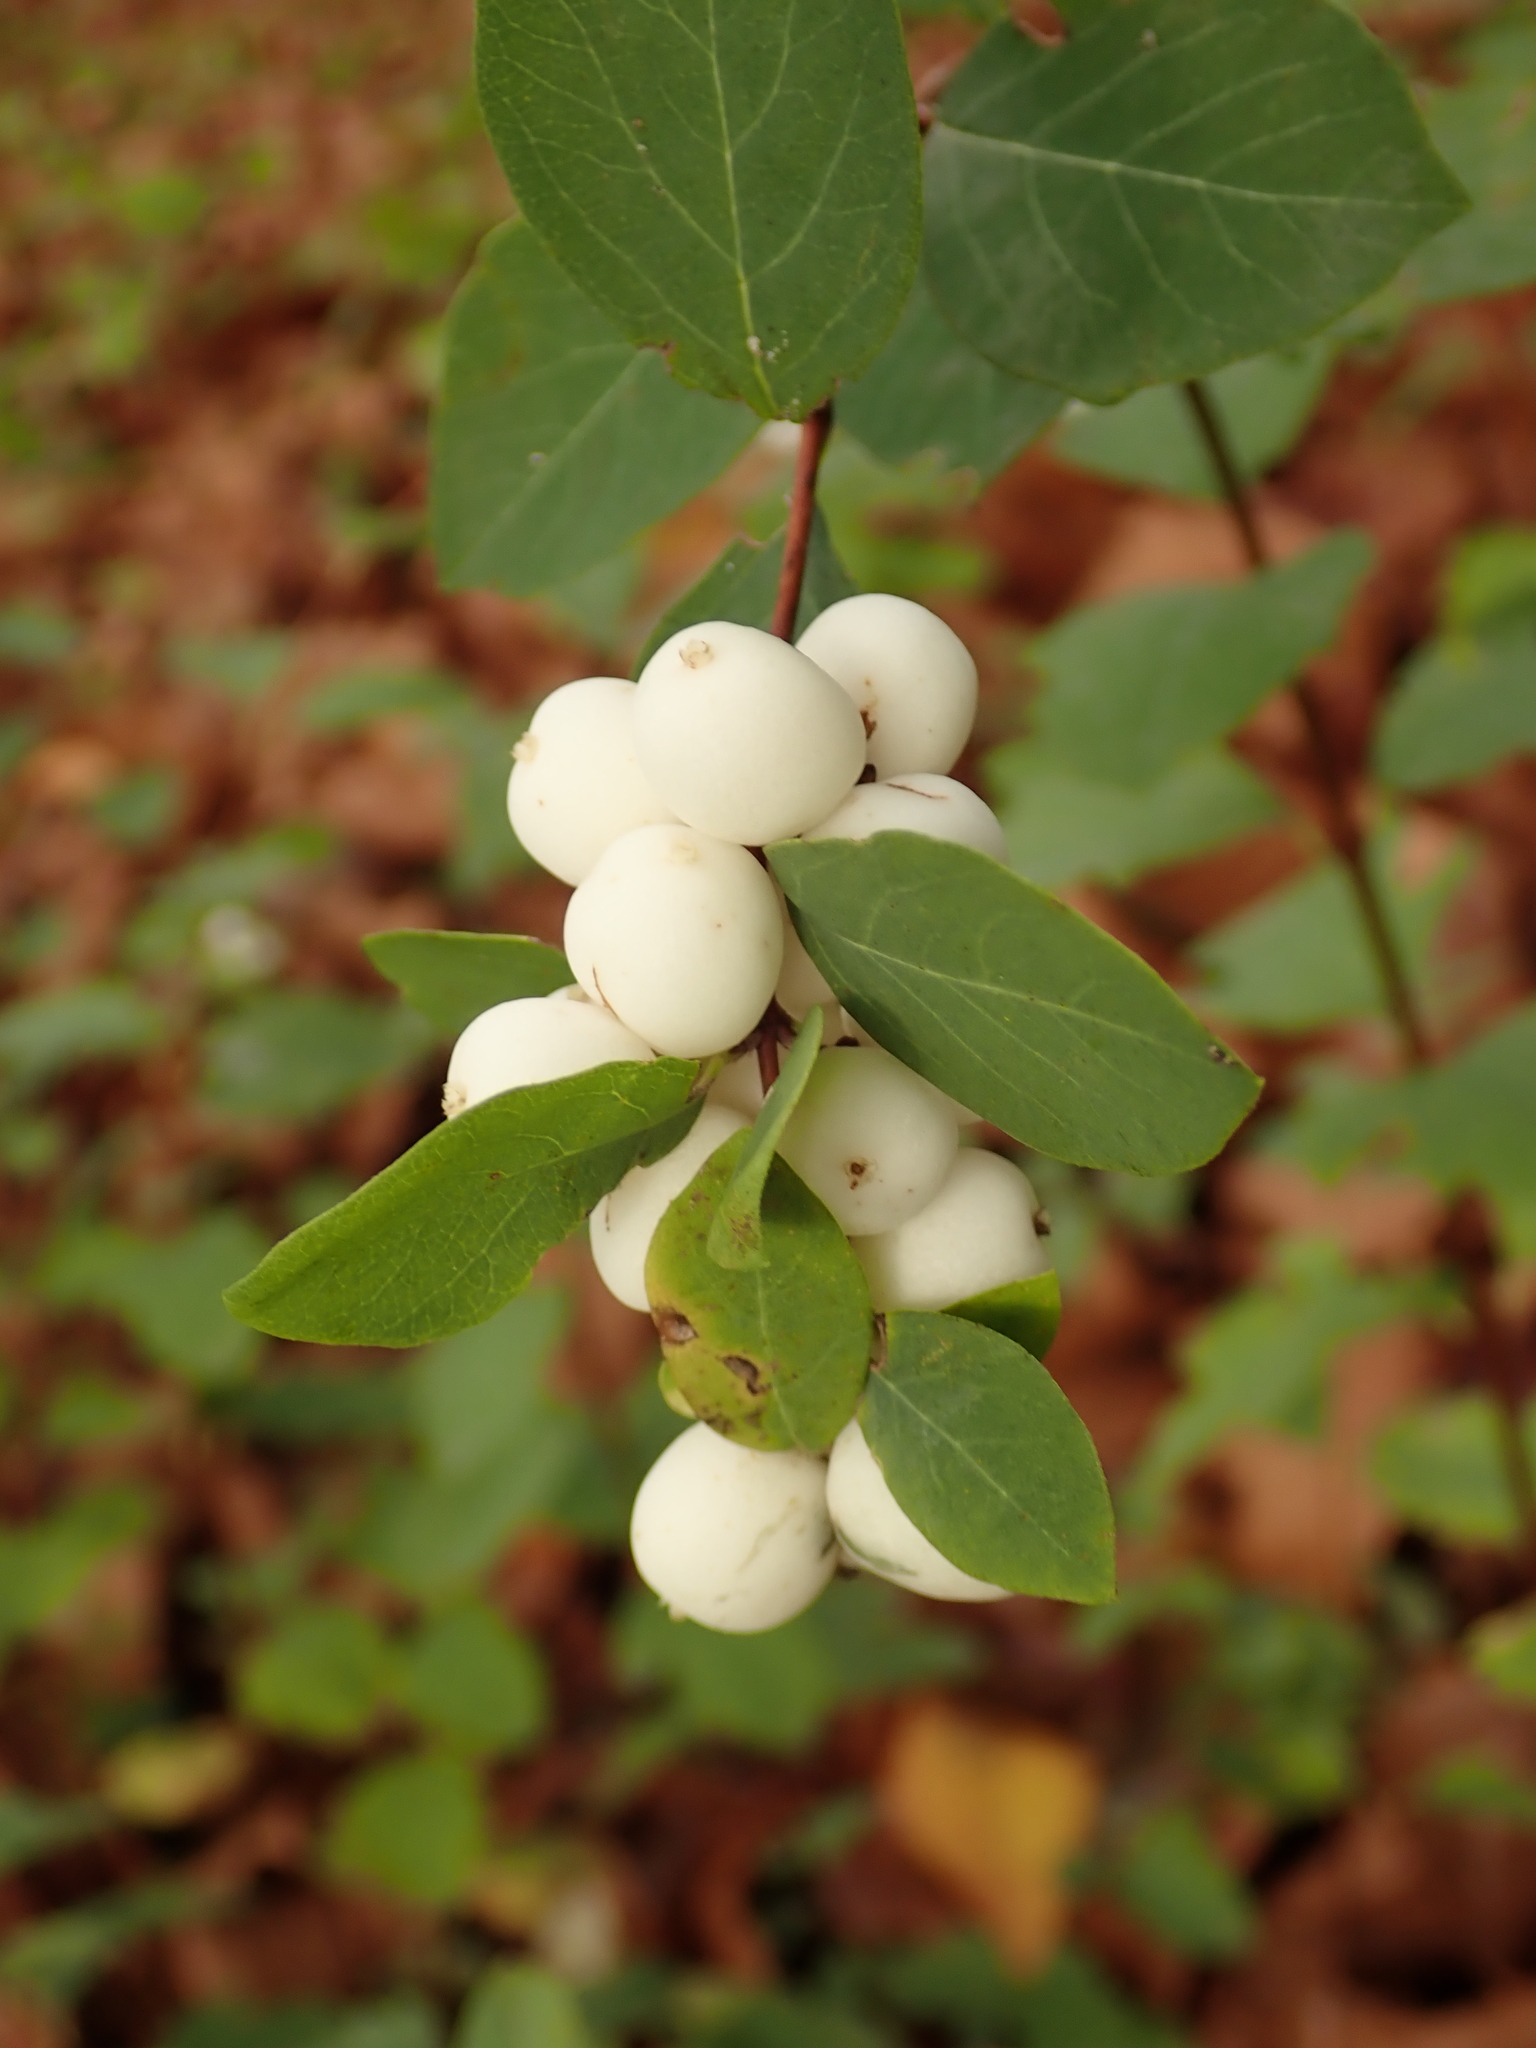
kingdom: Plantae
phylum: Tracheophyta
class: Magnoliopsida
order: Dipsacales
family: Caprifoliaceae
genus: Symphoricarpos
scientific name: Symphoricarpos albus
